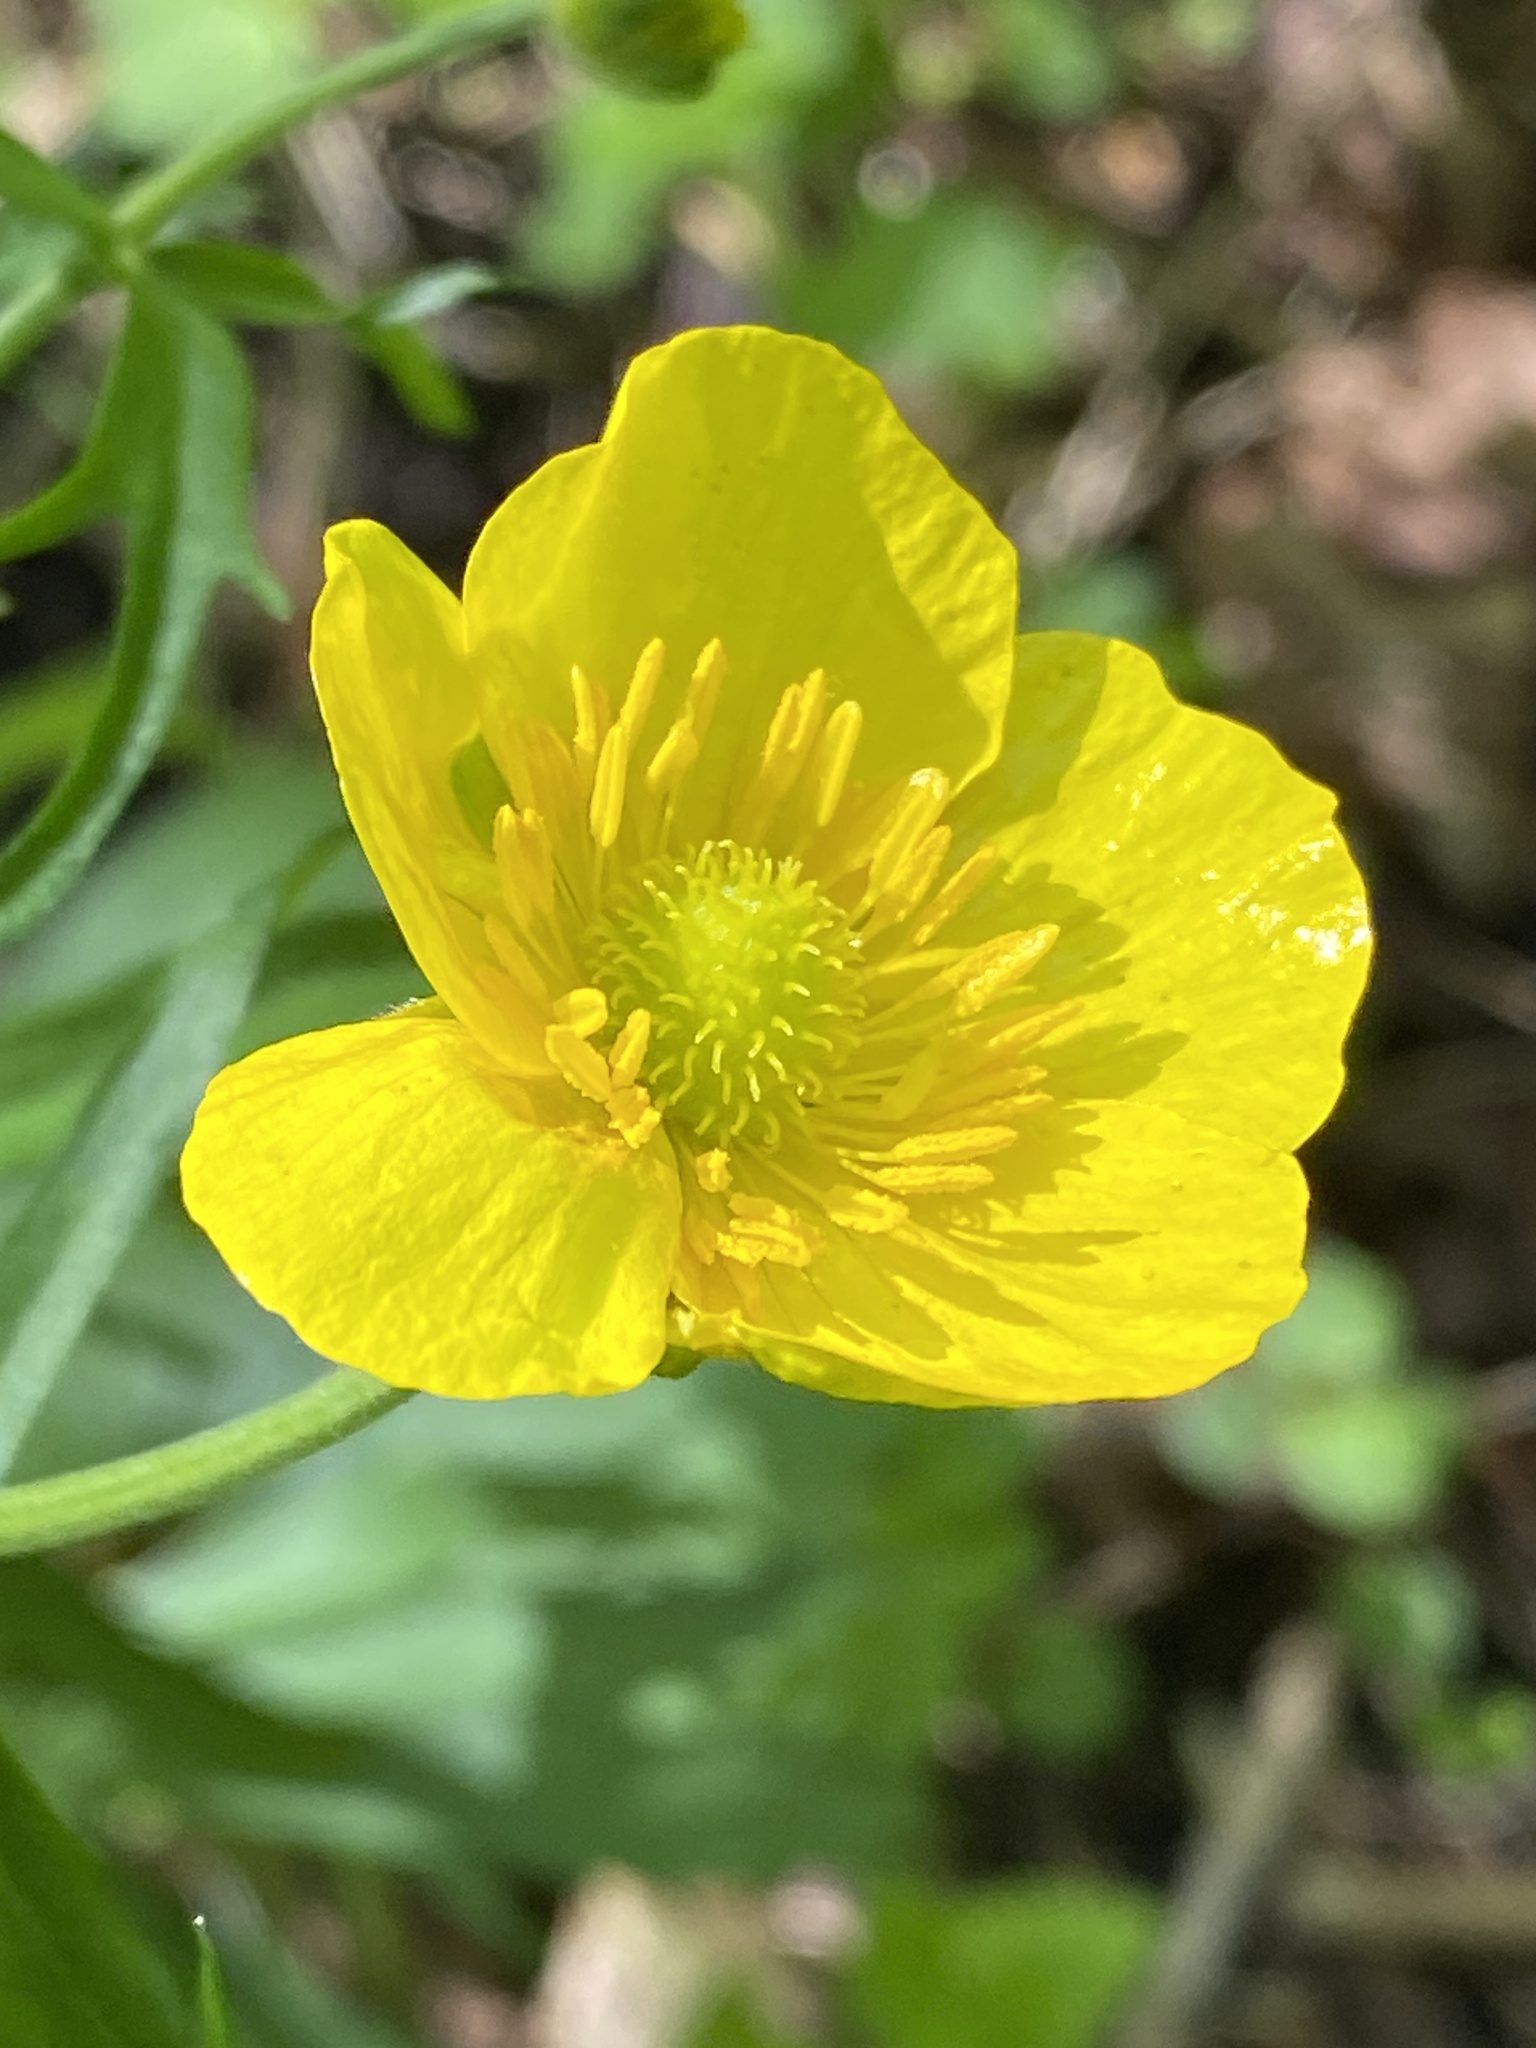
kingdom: Plantae
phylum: Tracheophyta
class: Magnoliopsida
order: Ranunculales
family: Ranunculaceae
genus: Ranunculus
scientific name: Ranunculus cassubicus
